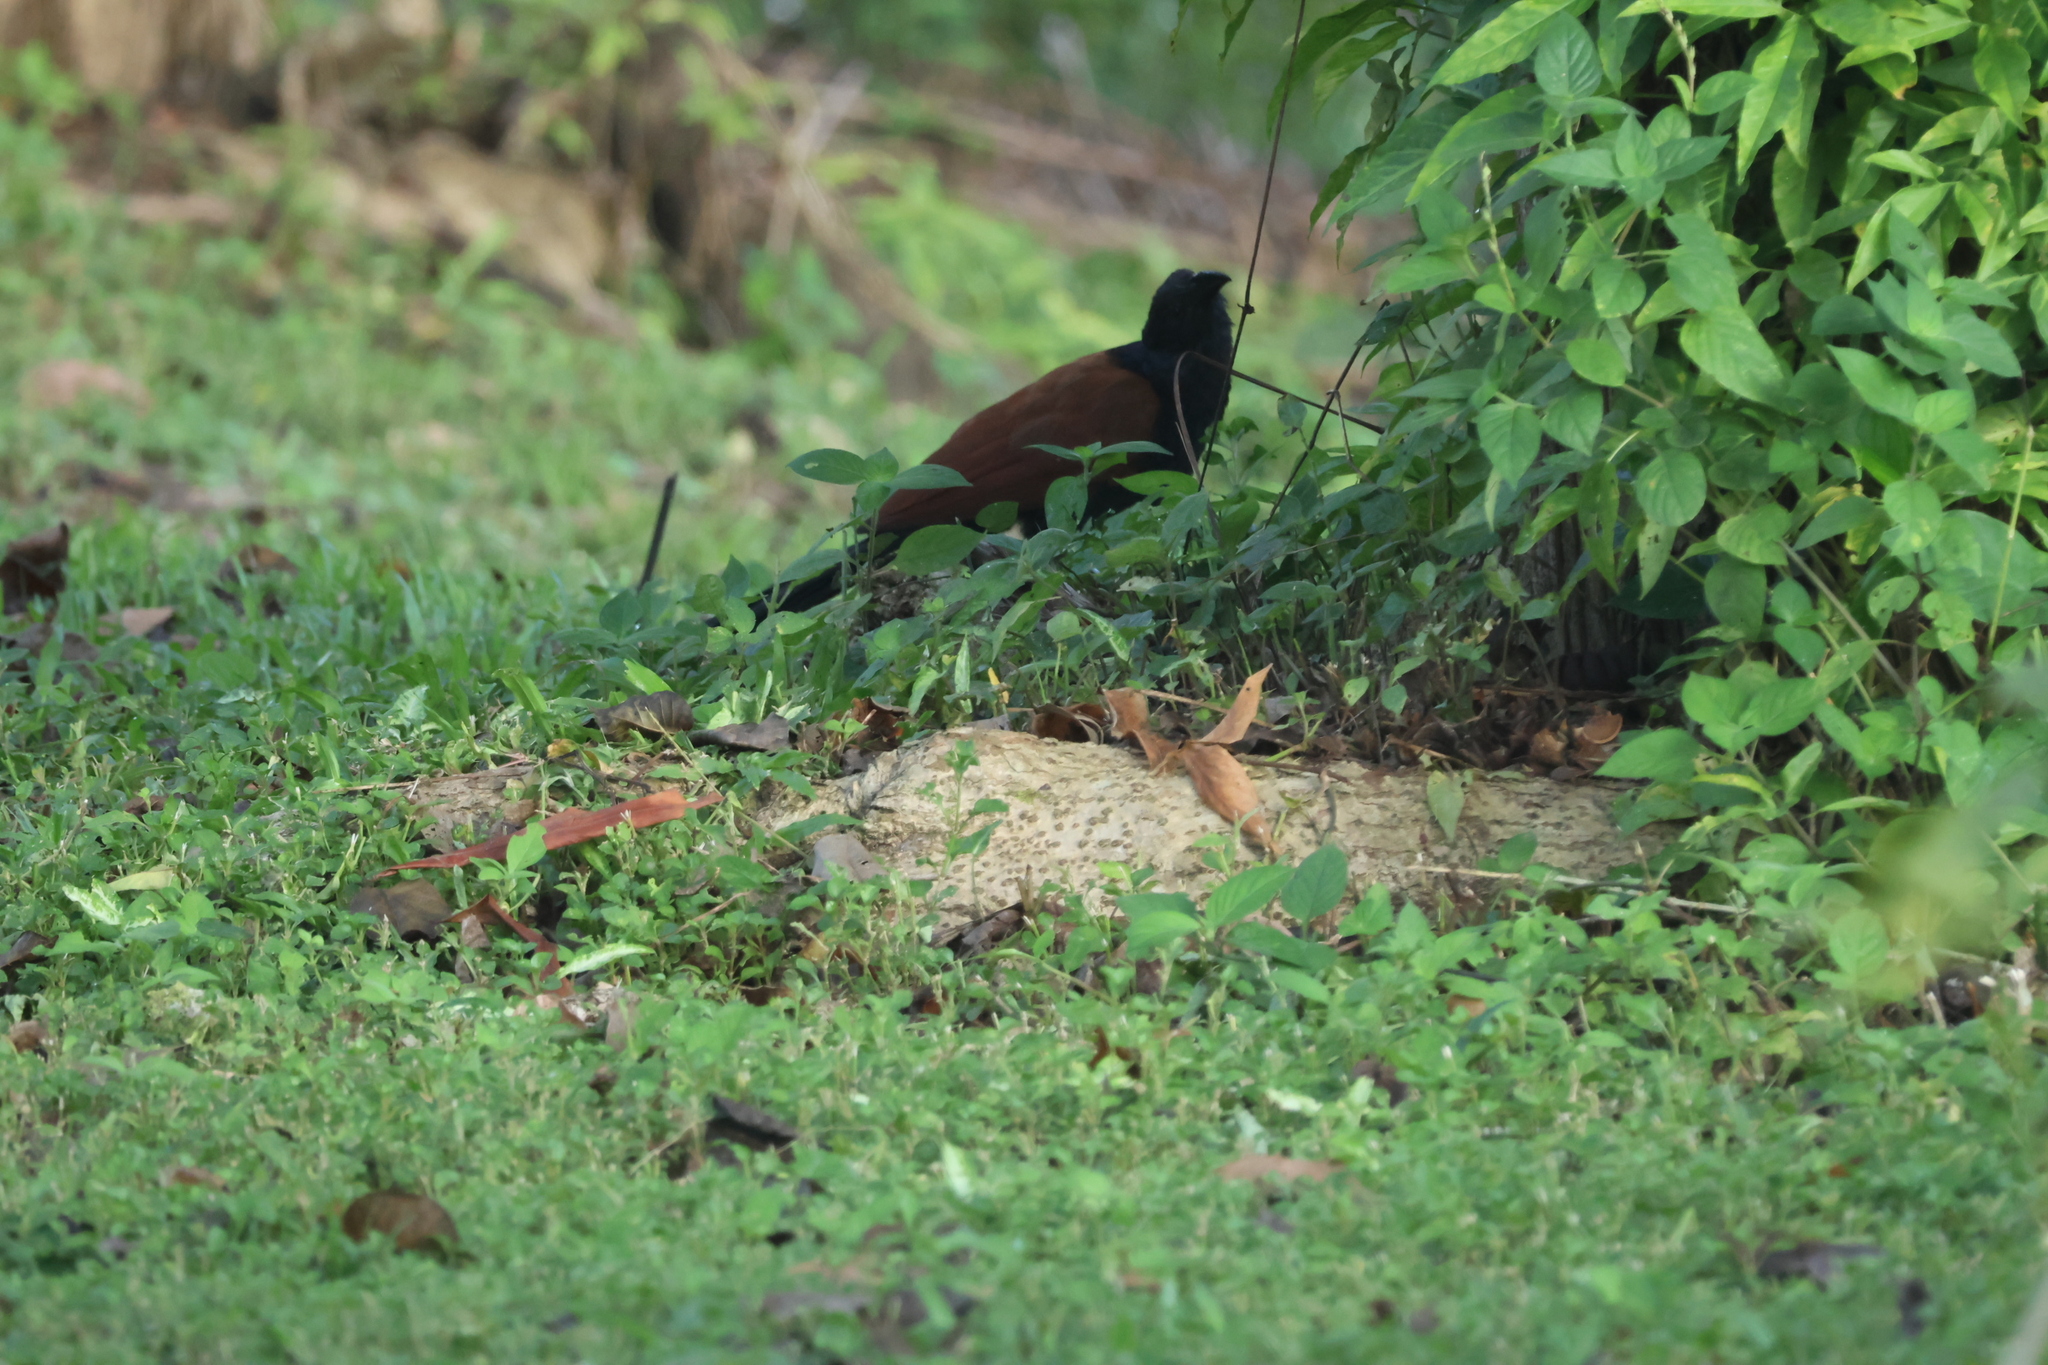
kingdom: Animalia
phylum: Chordata
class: Aves
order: Cuculiformes
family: Cuculidae
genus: Centropus
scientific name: Centropus sinensis
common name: Greater coucal
